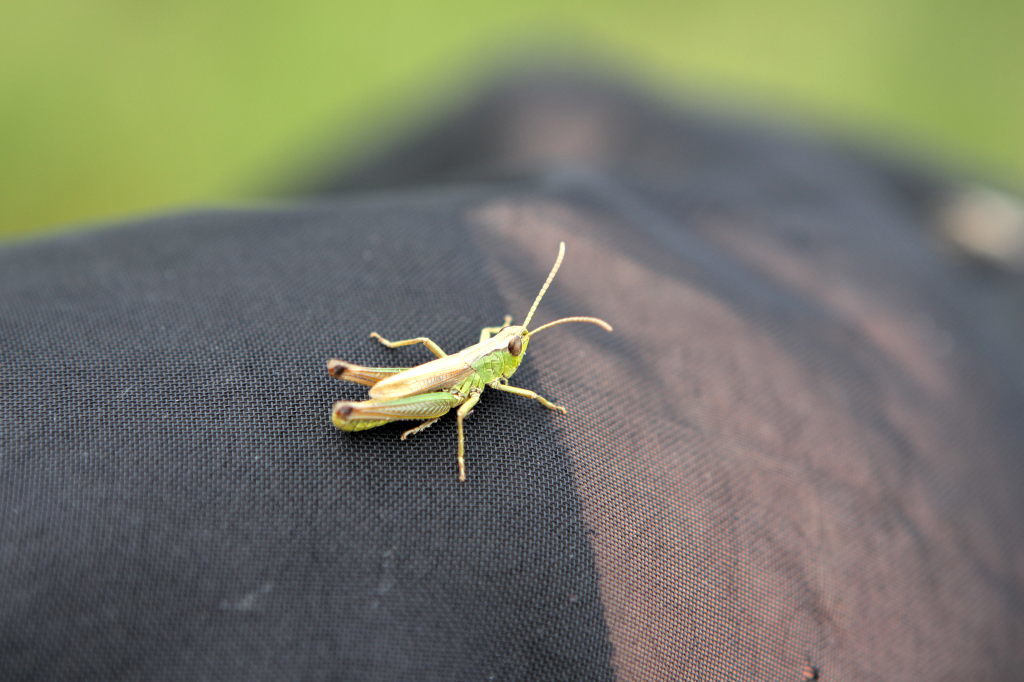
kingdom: Animalia
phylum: Arthropoda
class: Insecta
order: Orthoptera
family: Acrididae
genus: Pseudochorthippus
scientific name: Pseudochorthippus parallelus
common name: Meadow grasshopper
